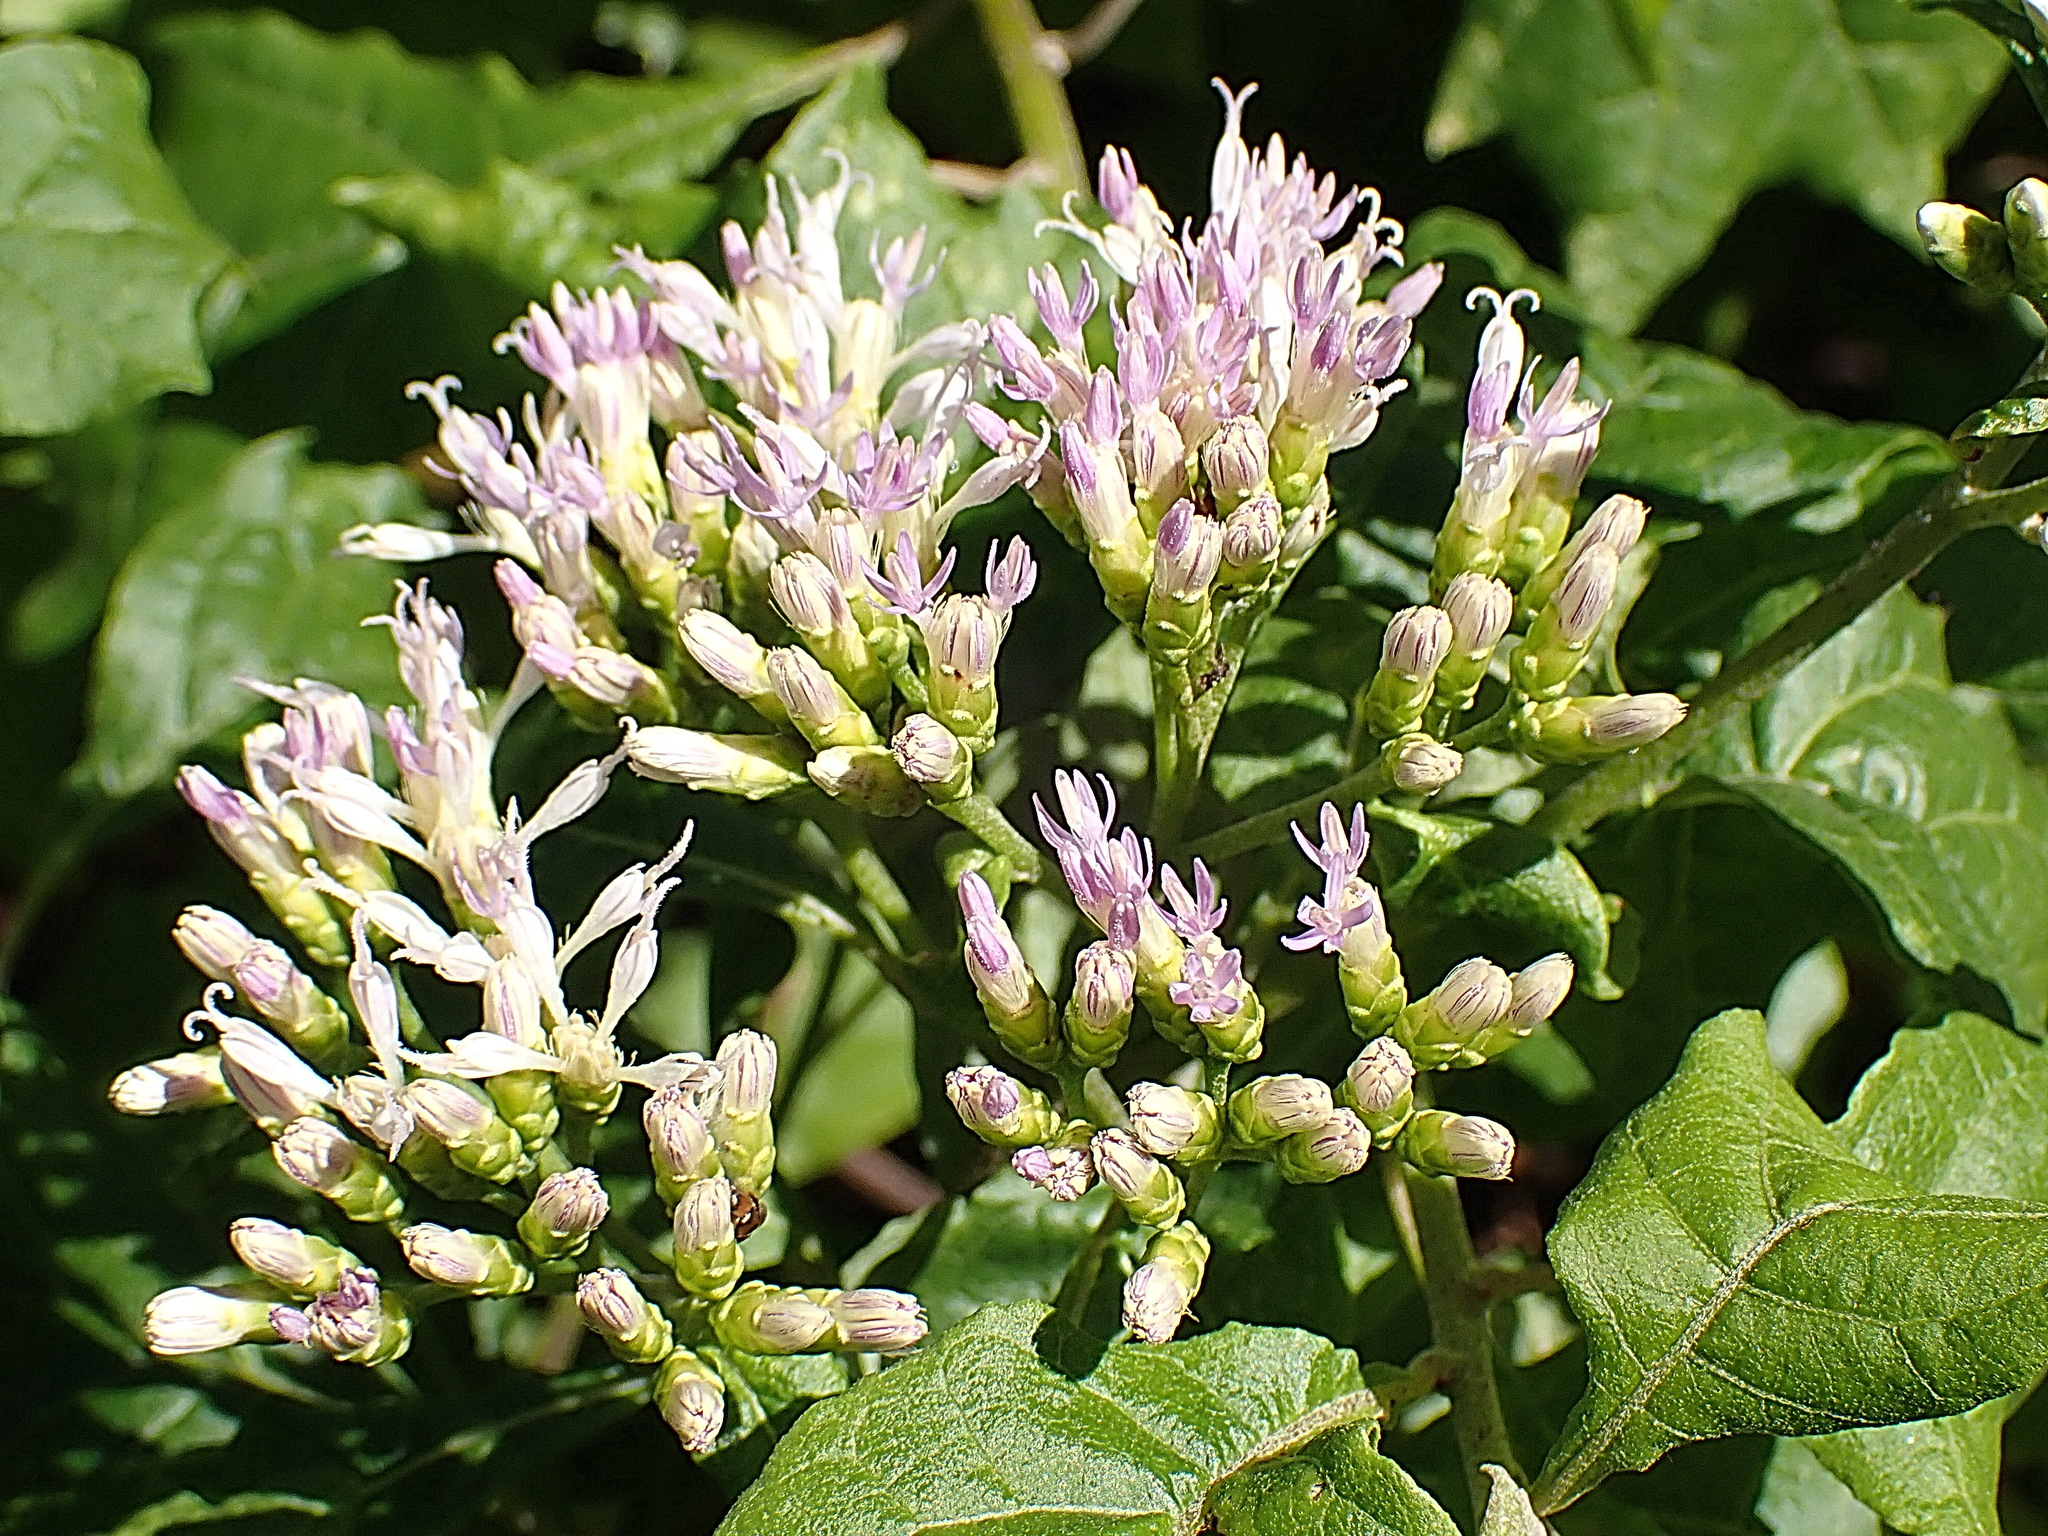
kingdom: Plantae
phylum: Tracheophyta
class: Magnoliopsida
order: Asterales
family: Asteraceae
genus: Gymnanthemum
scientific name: Gymnanthemum capense
